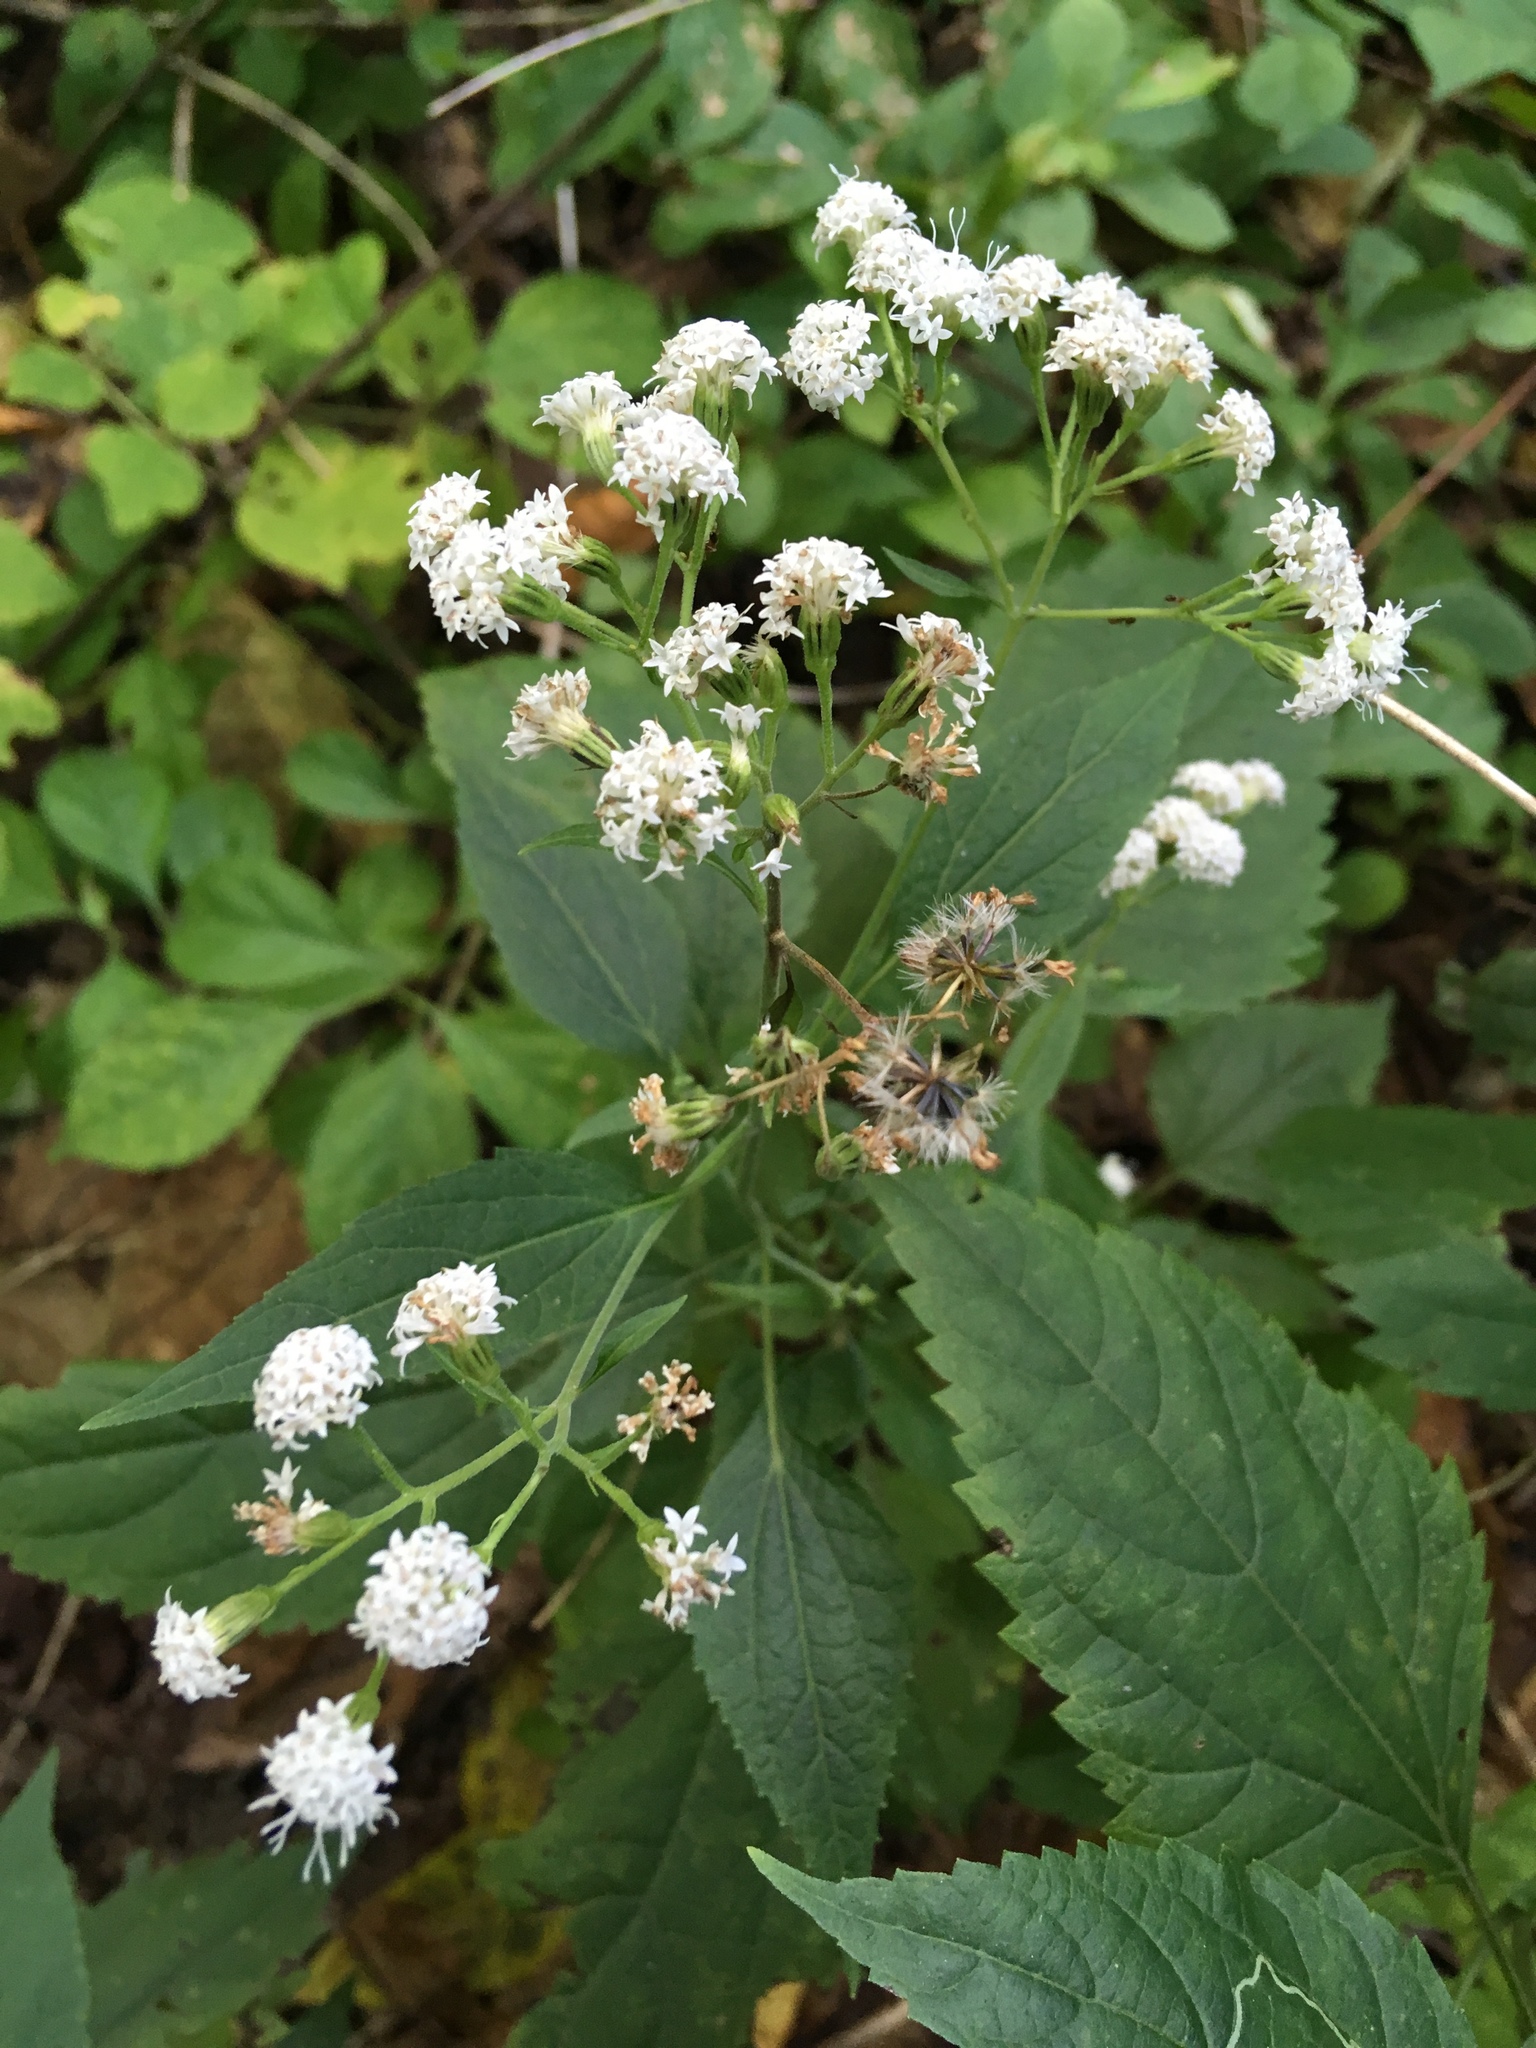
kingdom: Plantae
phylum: Tracheophyta
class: Magnoliopsida
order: Asterales
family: Asteraceae
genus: Ageratina
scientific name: Ageratina altissima
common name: White snakeroot
